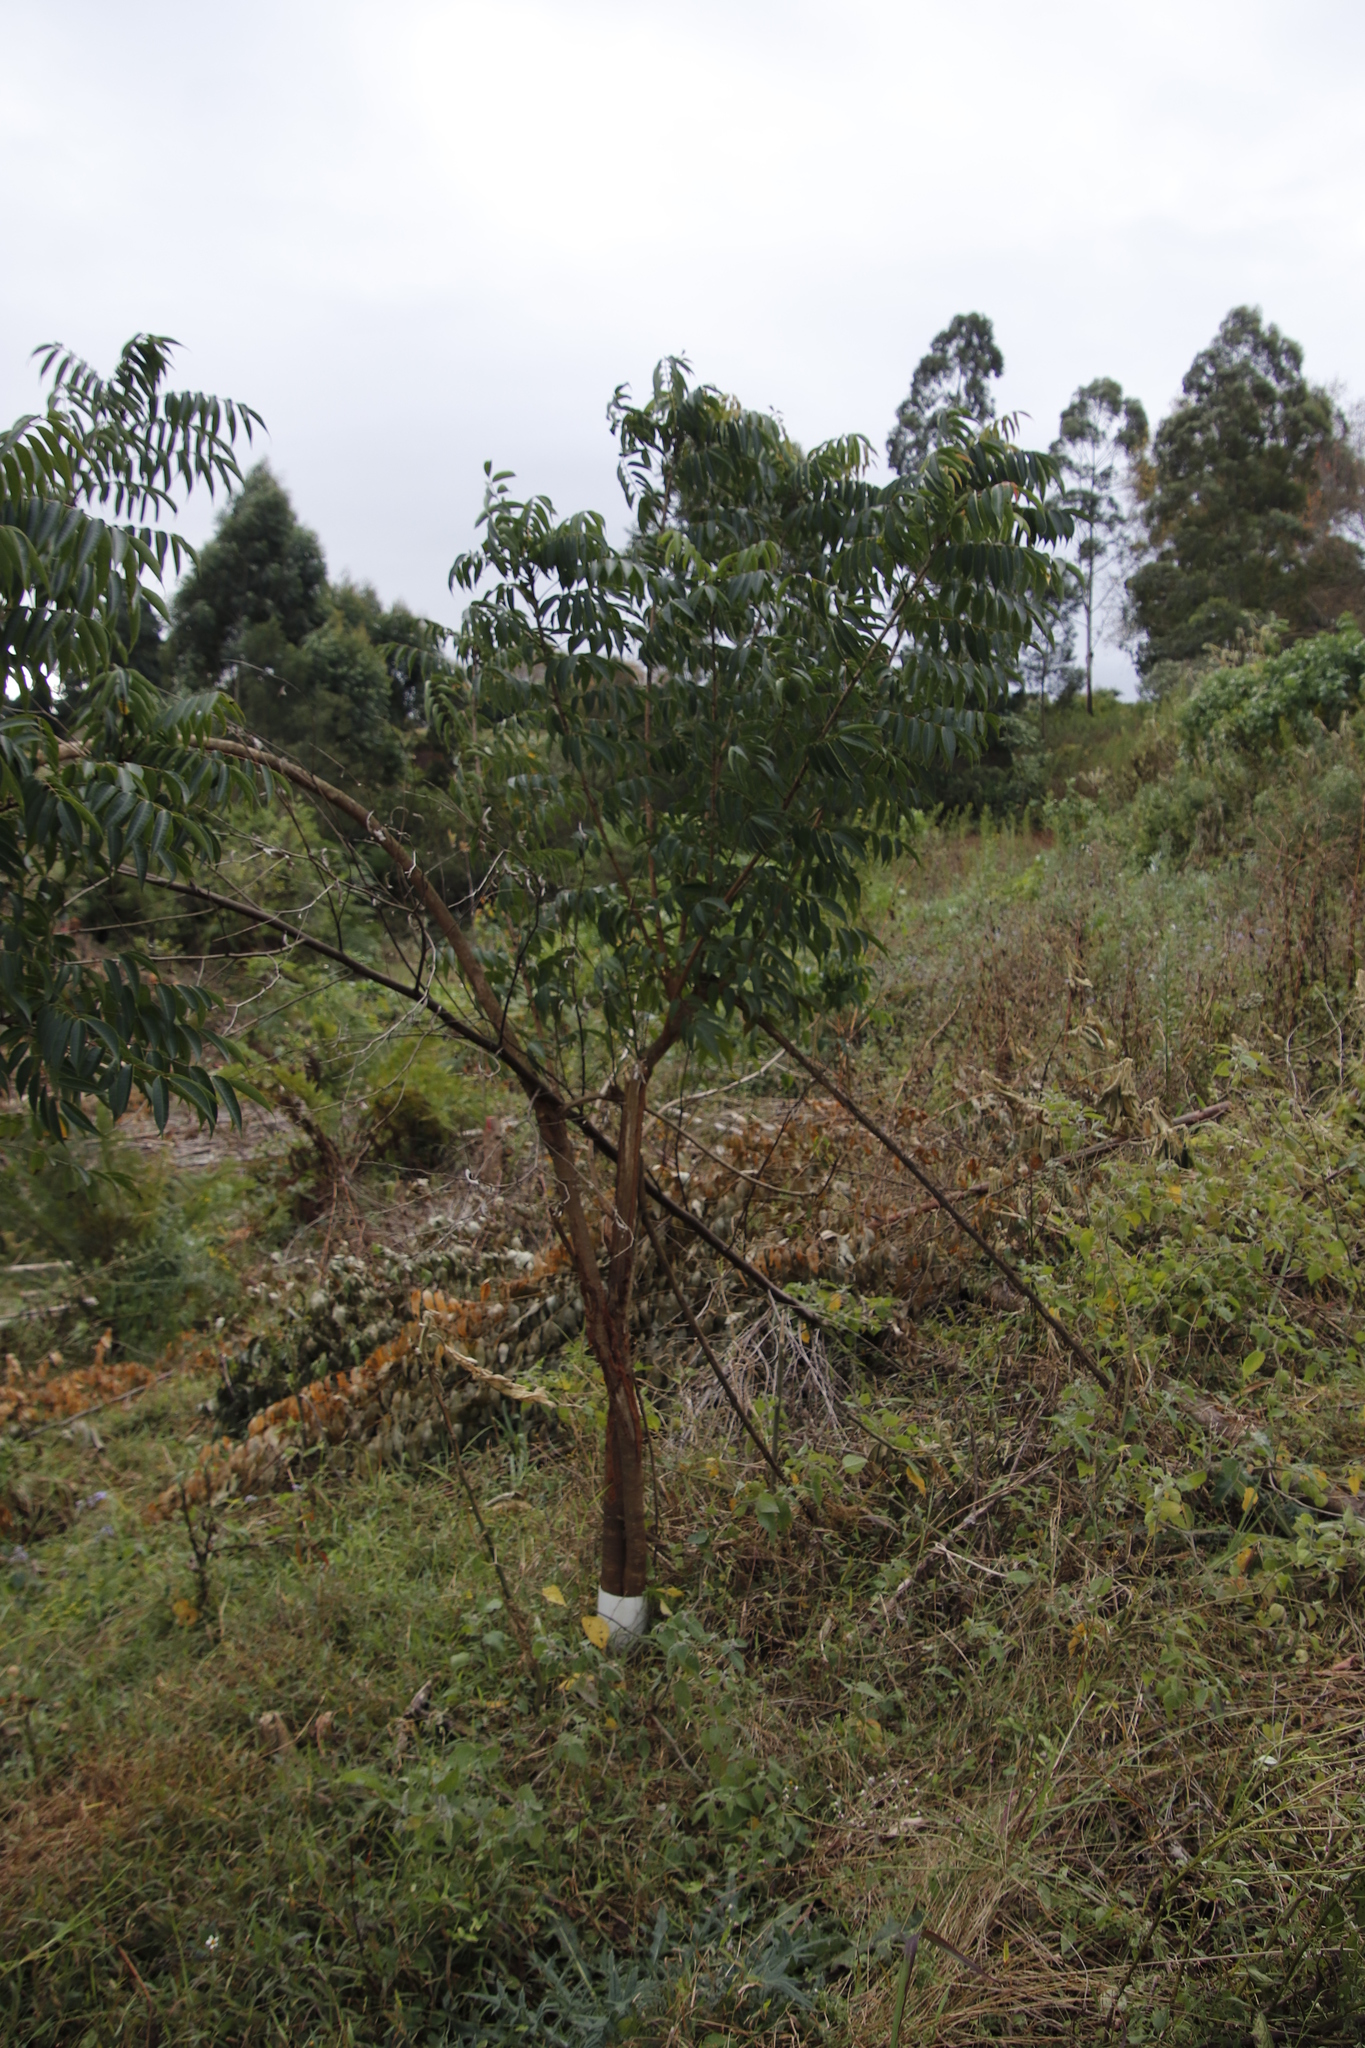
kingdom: Plantae
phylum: Tracheophyta
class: Polypodiopsida
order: Cyatheales
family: Cyatheaceae
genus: Sphaeropteris
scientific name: Sphaeropteris cooperi
